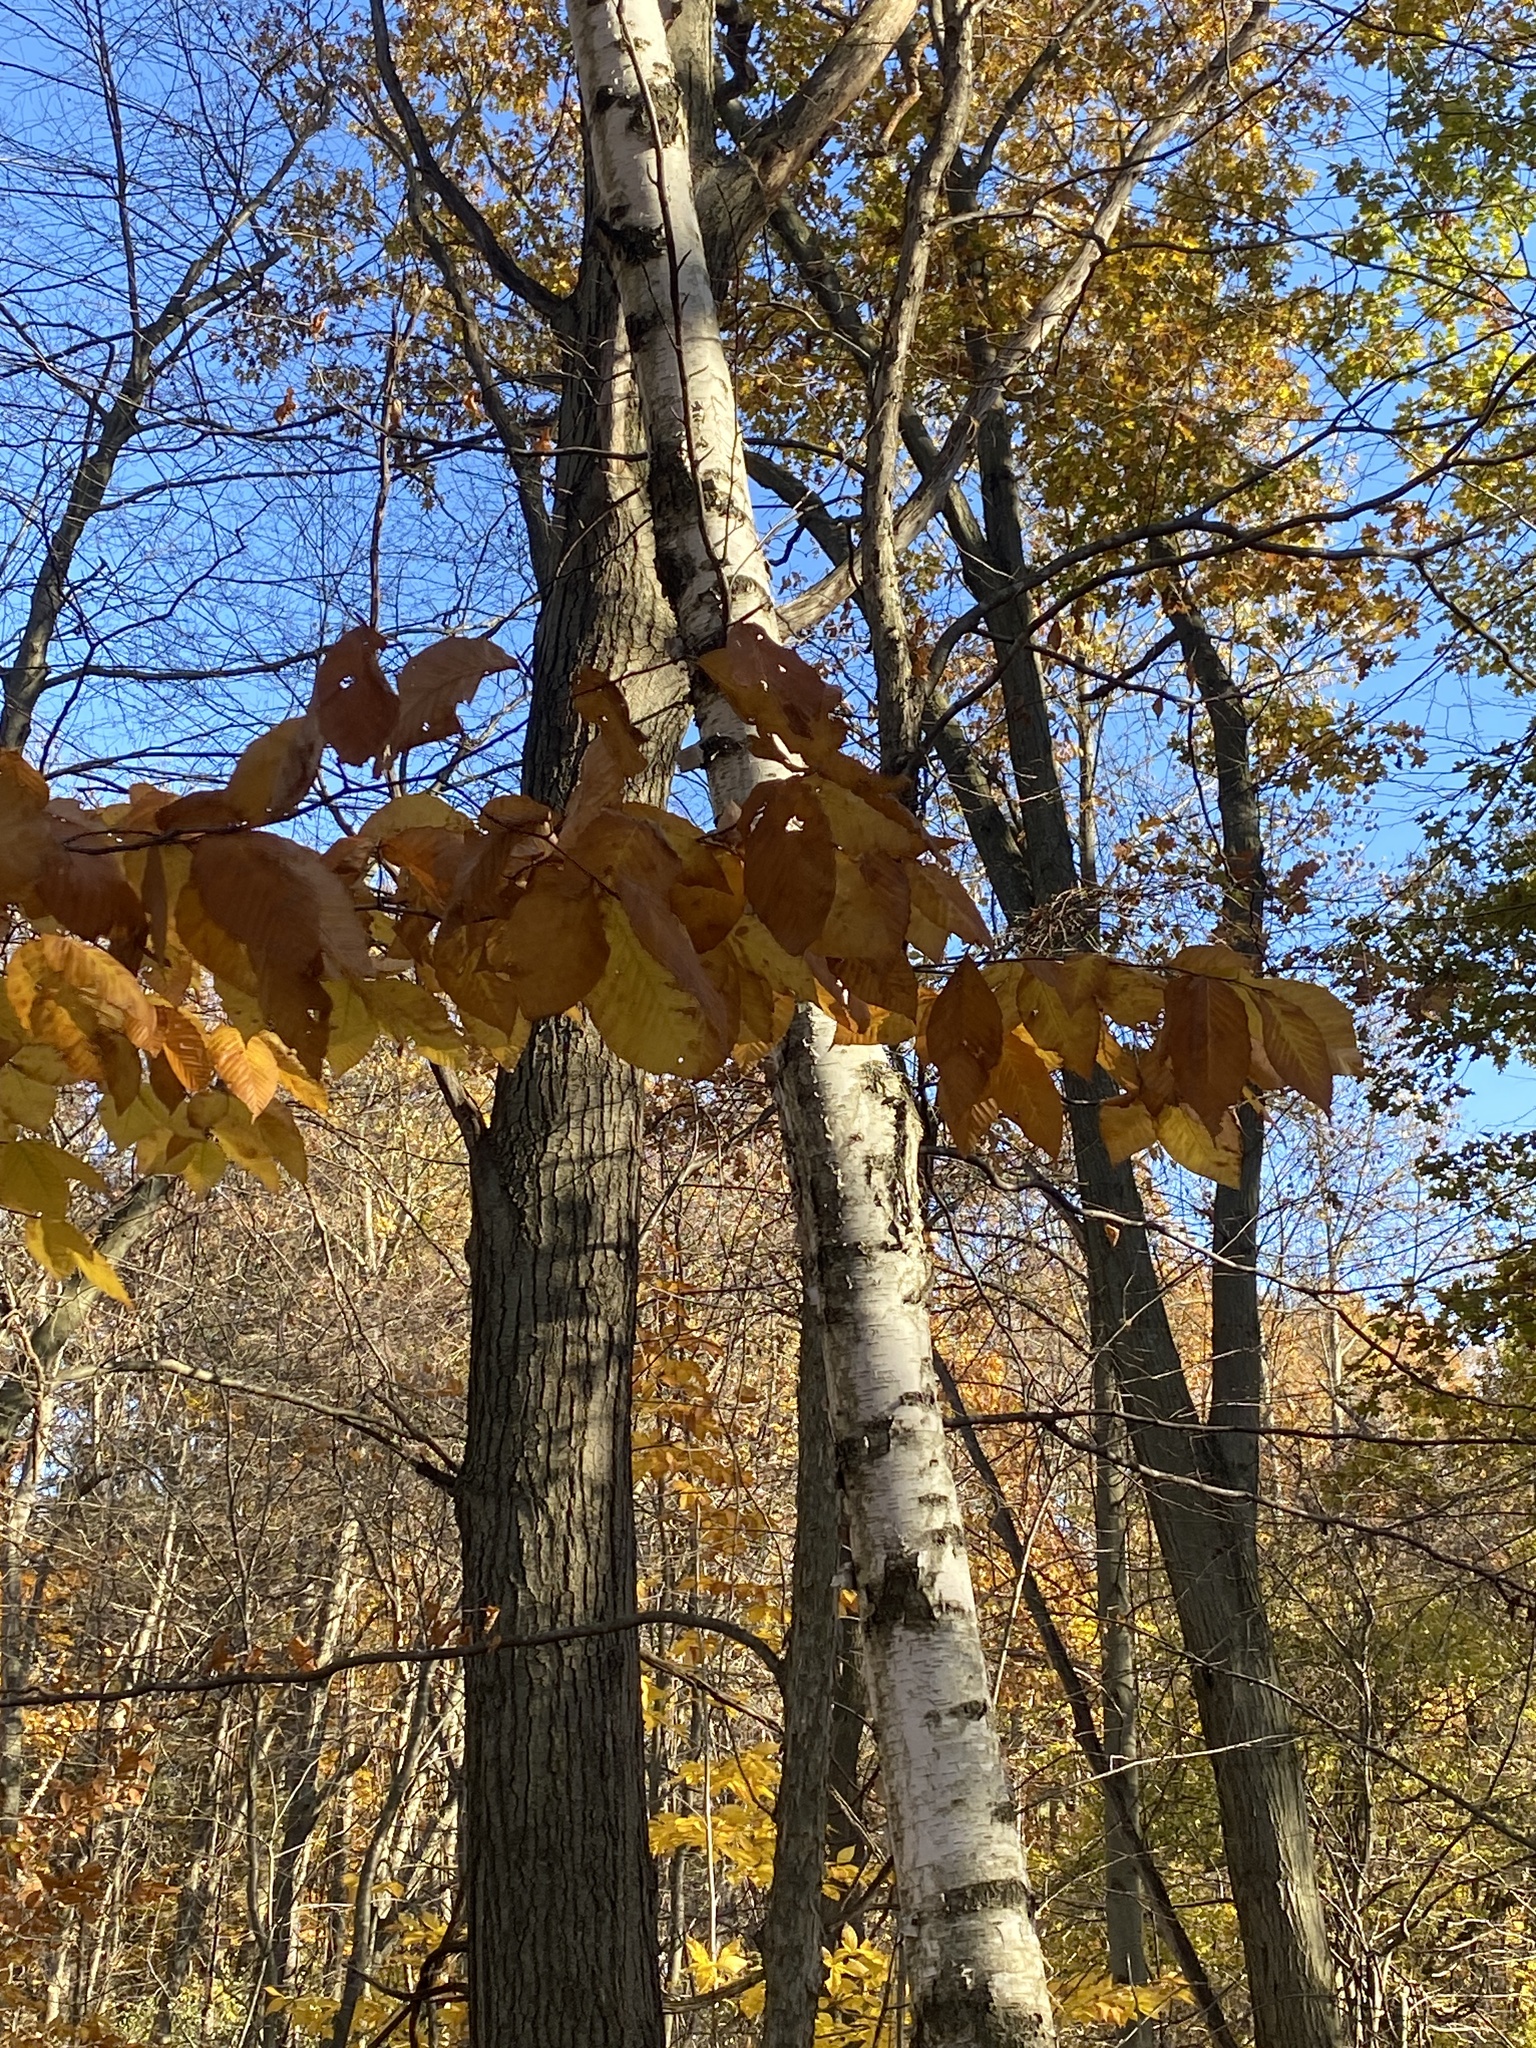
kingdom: Plantae
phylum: Tracheophyta
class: Magnoliopsida
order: Fagales
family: Betulaceae
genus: Betula
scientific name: Betula papyrifera
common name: Paper birch
